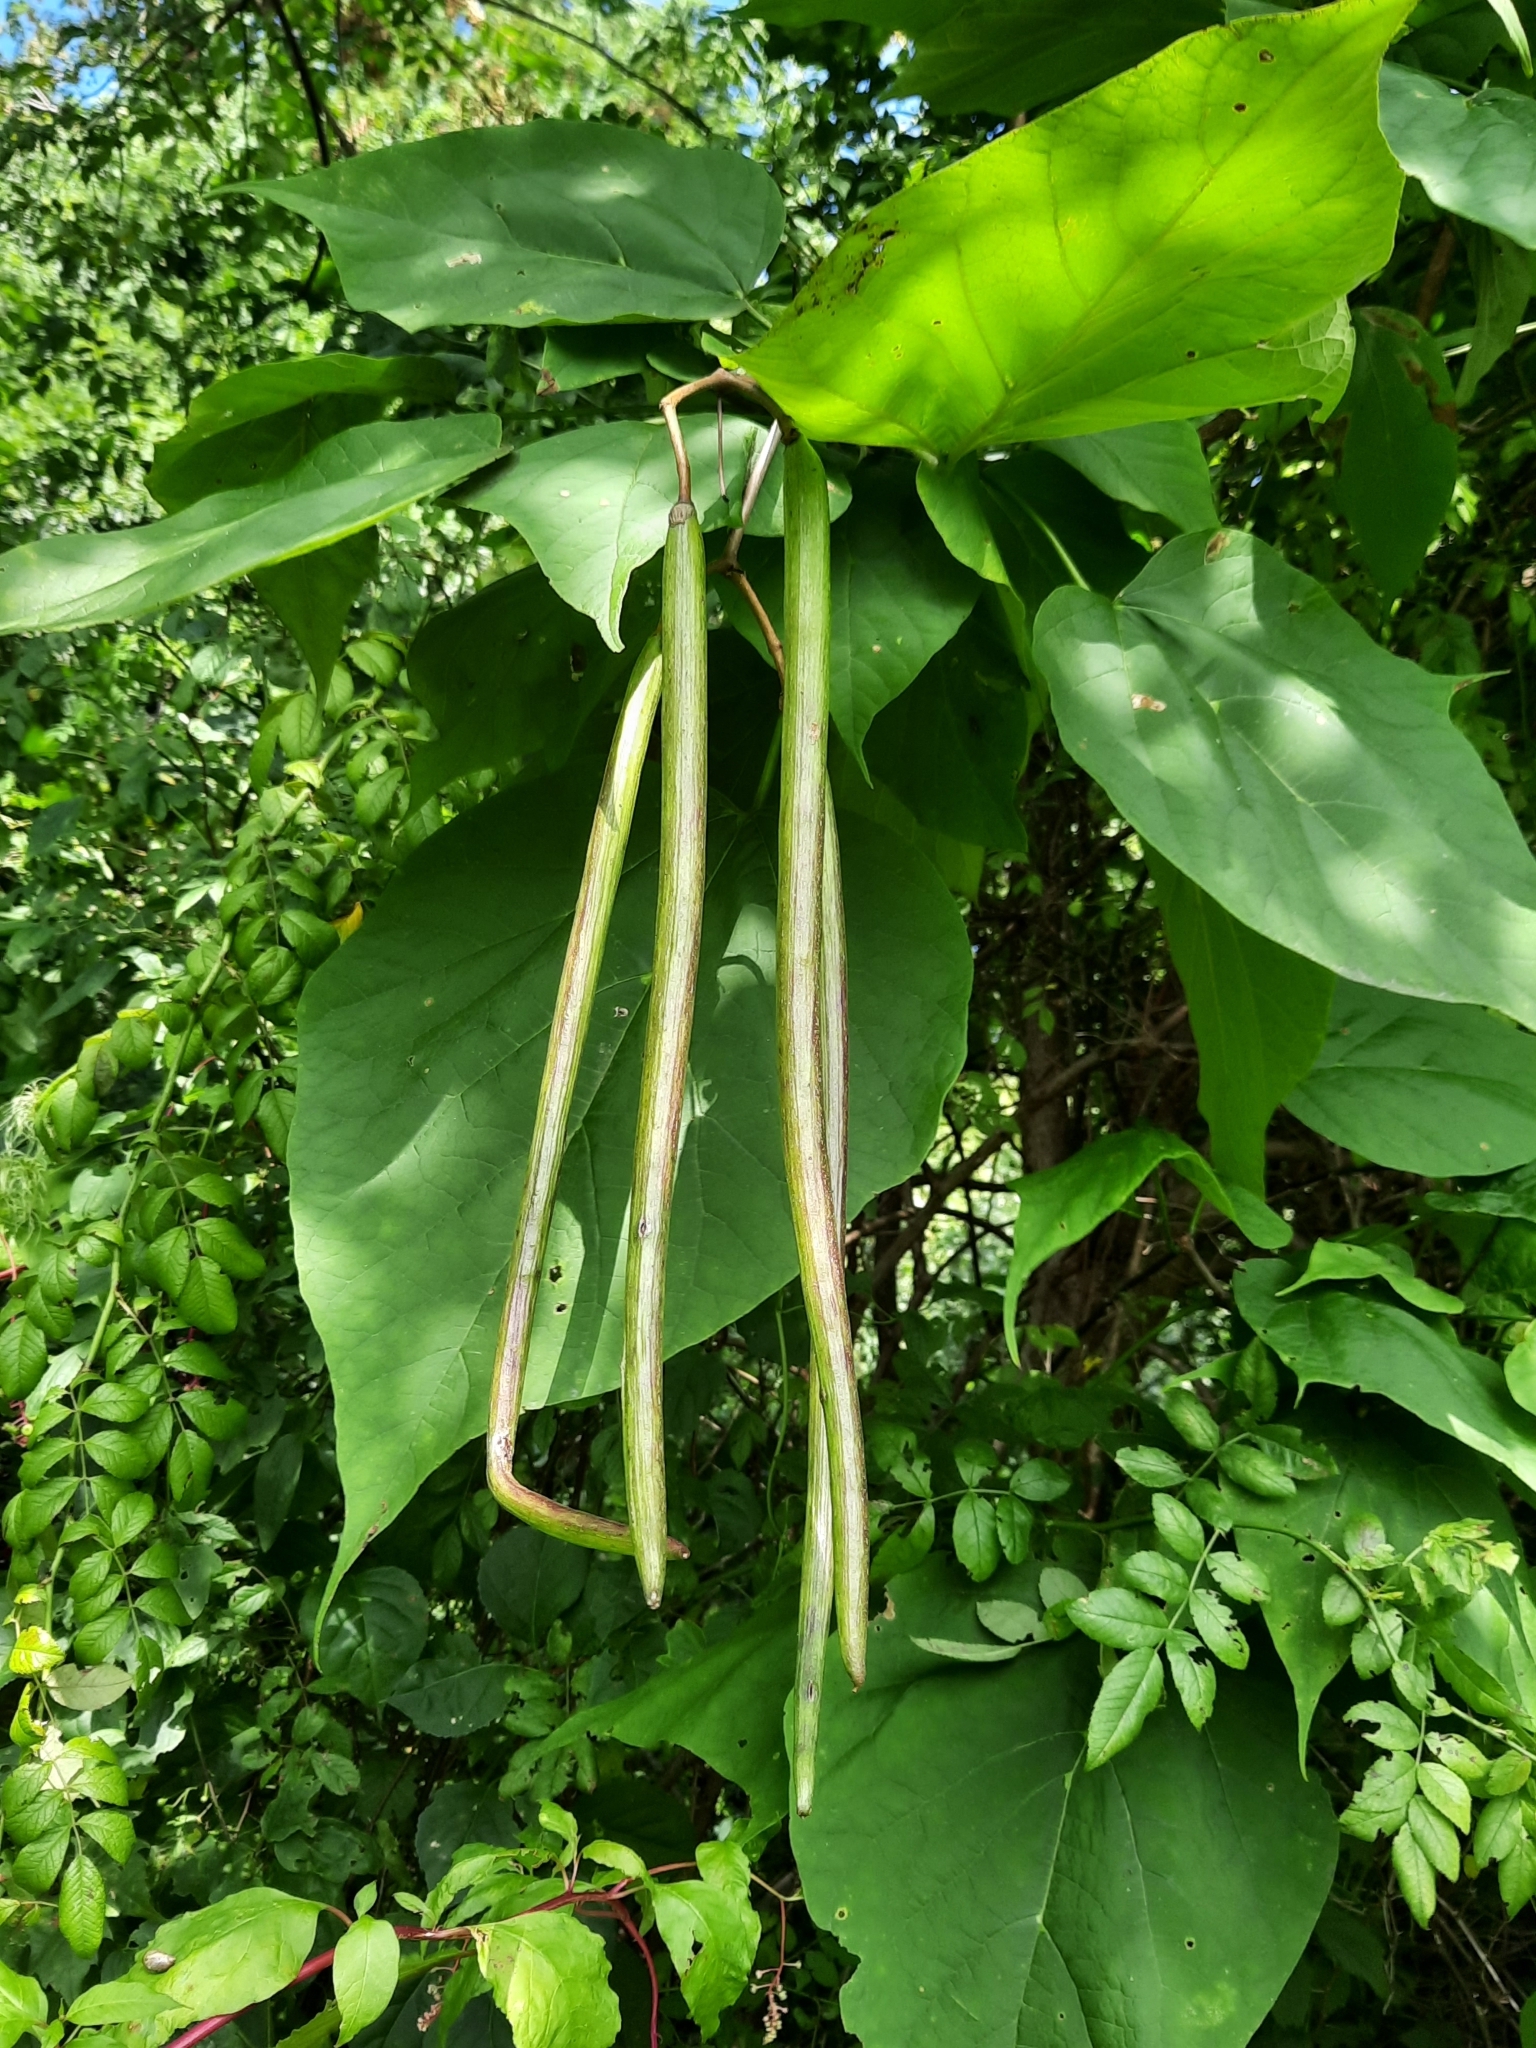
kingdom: Plantae
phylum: Tracheophyta
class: Magnoliopsida
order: Lamiales
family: Bignoniaceae
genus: Catalpa
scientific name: Catalpa speciosa
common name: Northern catalpa
